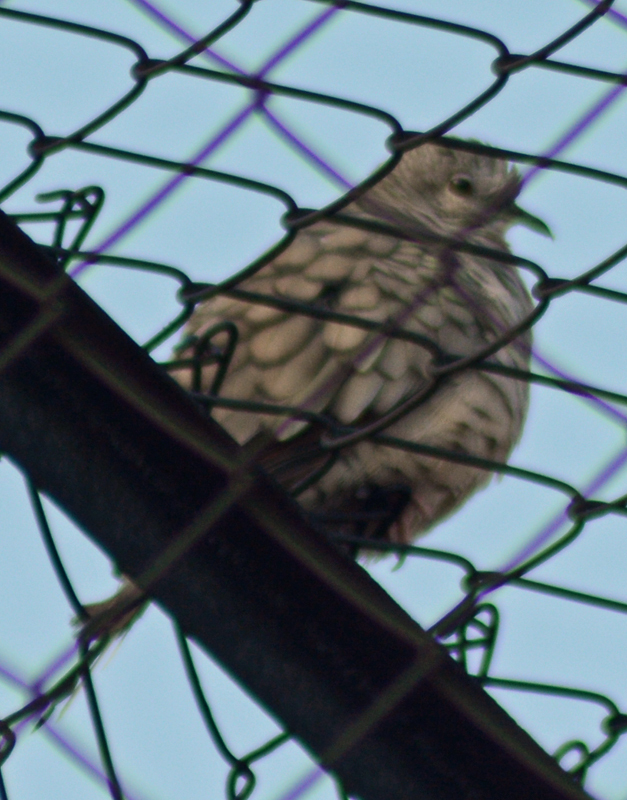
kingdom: Animalia
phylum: Chordata
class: Aves
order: Columbiformes
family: Columbidae
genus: Columbina
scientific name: Columbina inca
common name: Inca dove
